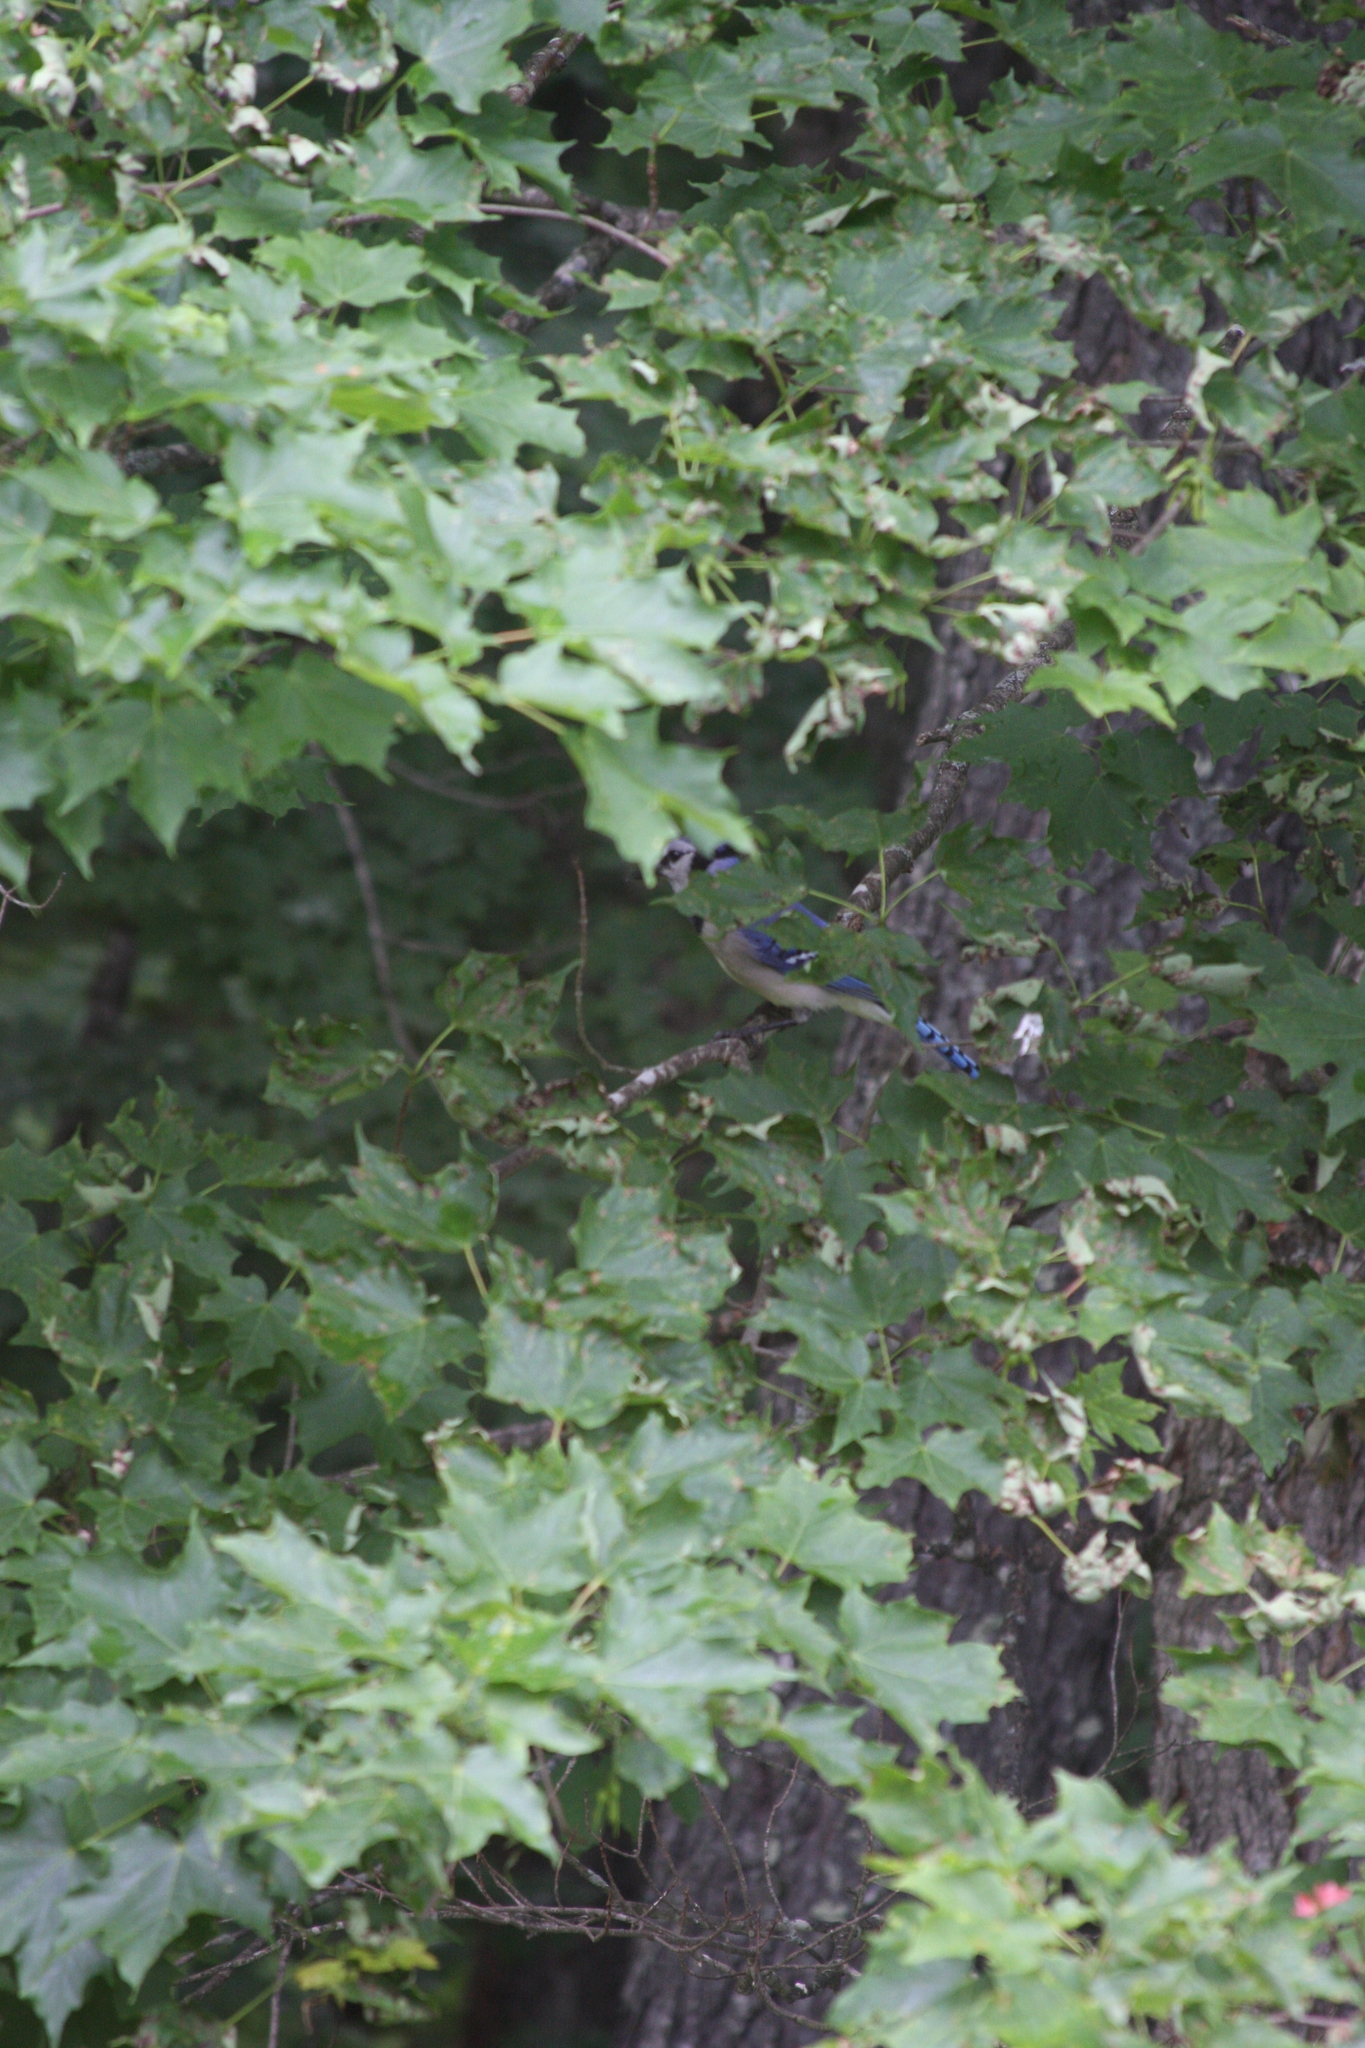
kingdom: Animalia
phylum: Chordata
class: Aves
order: Passeriformes
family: Corvidae
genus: Cyanocitta
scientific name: Cyanocitta cristata
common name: Blue jay
